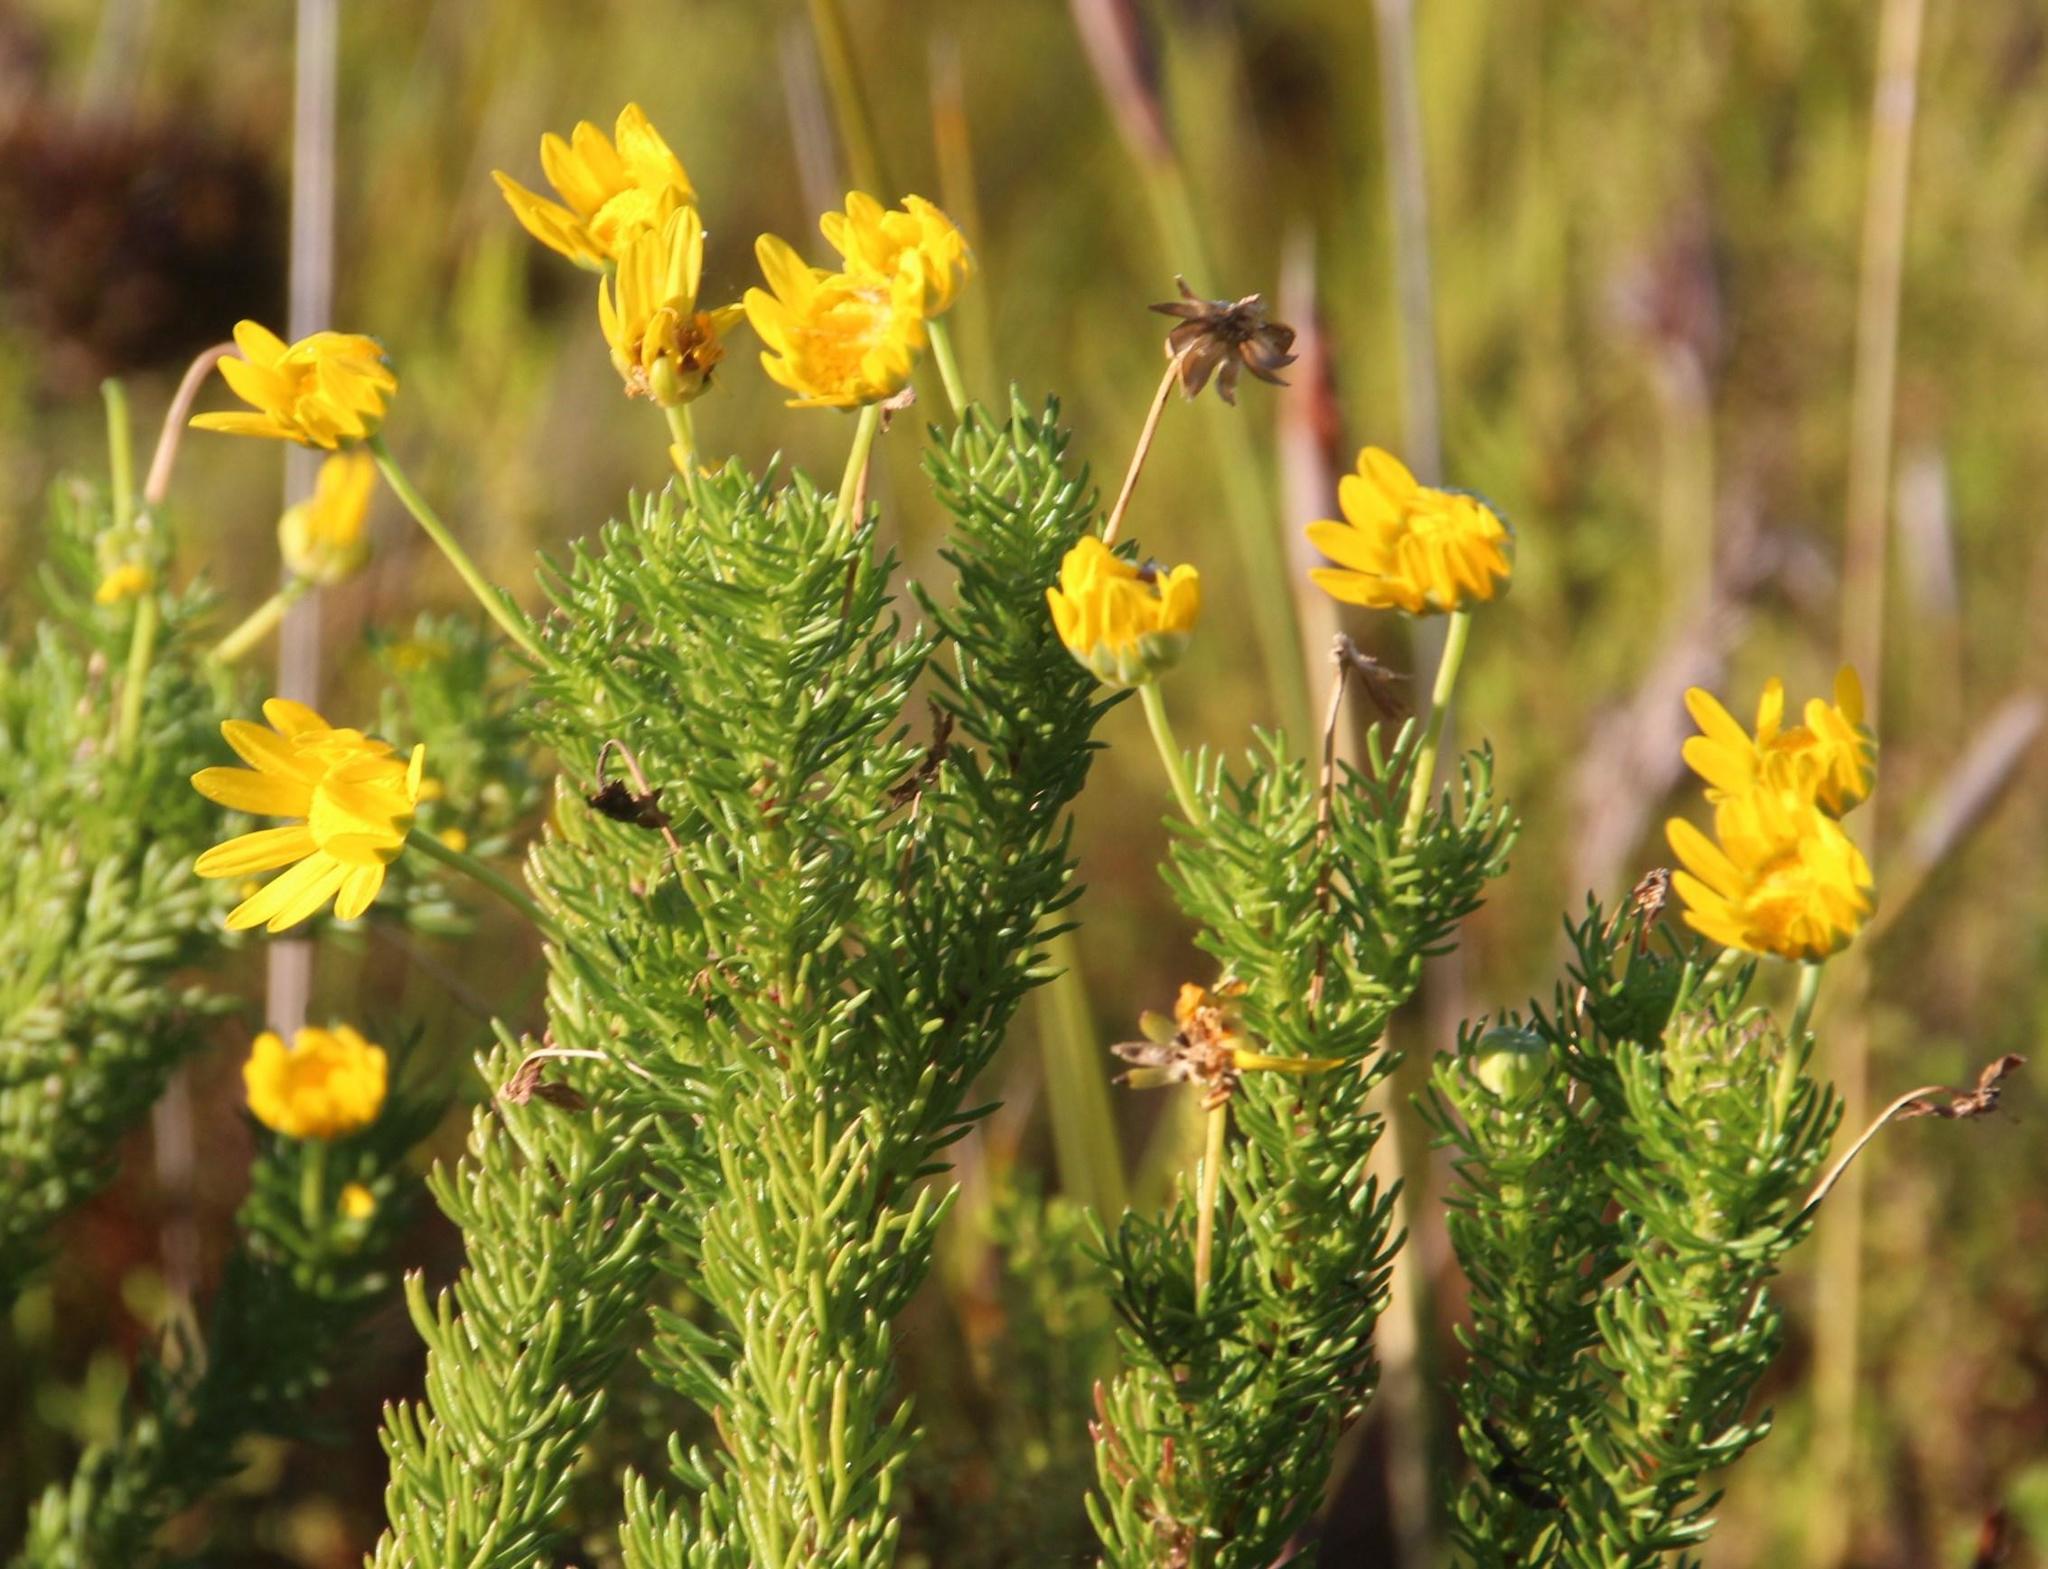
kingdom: Plantae
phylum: Tracheophyta
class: Magnoliopsida
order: Asterales
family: Asteraceae
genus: Euryops
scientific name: Euryops abrotanifolius
